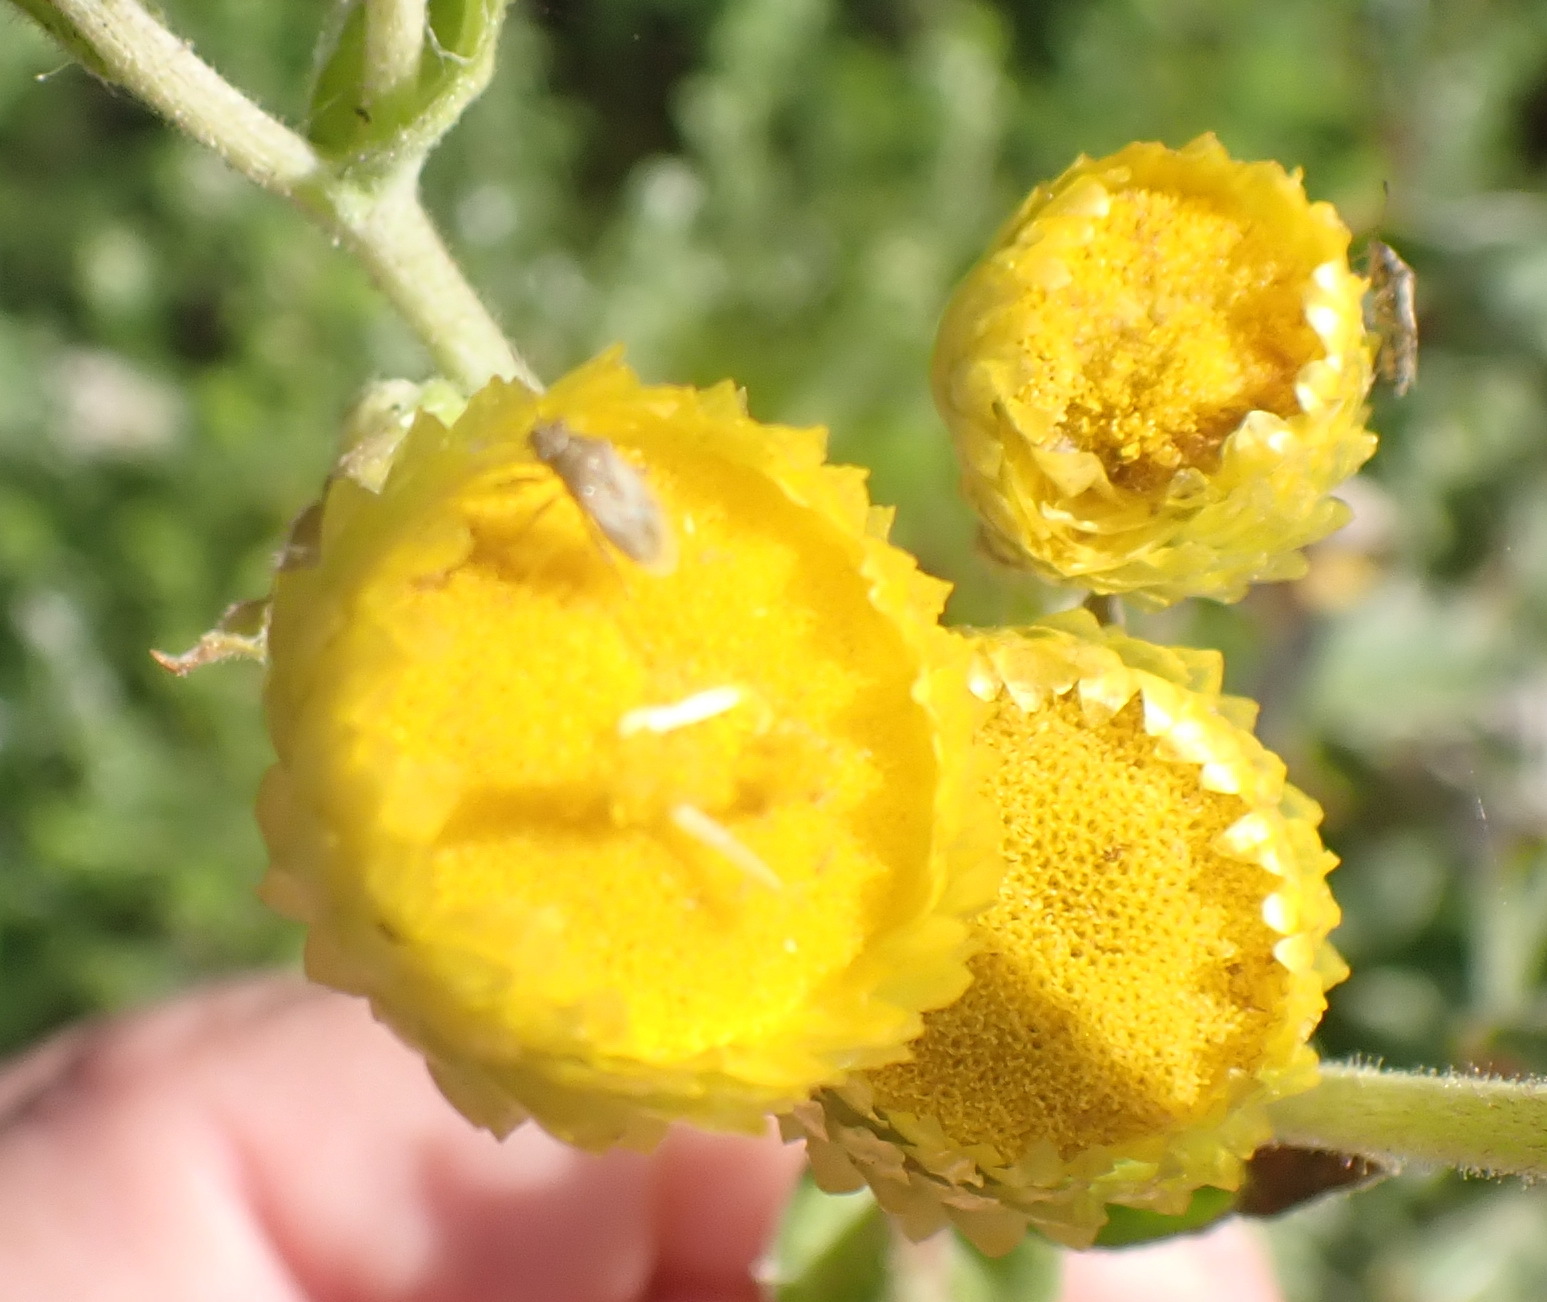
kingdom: Plantae
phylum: Tracheophyta
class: Magnoliopsida
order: Asterales
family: Asteraceae
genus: Helichrysum
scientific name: Helichrysum foetidum
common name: Stinking everlasting
